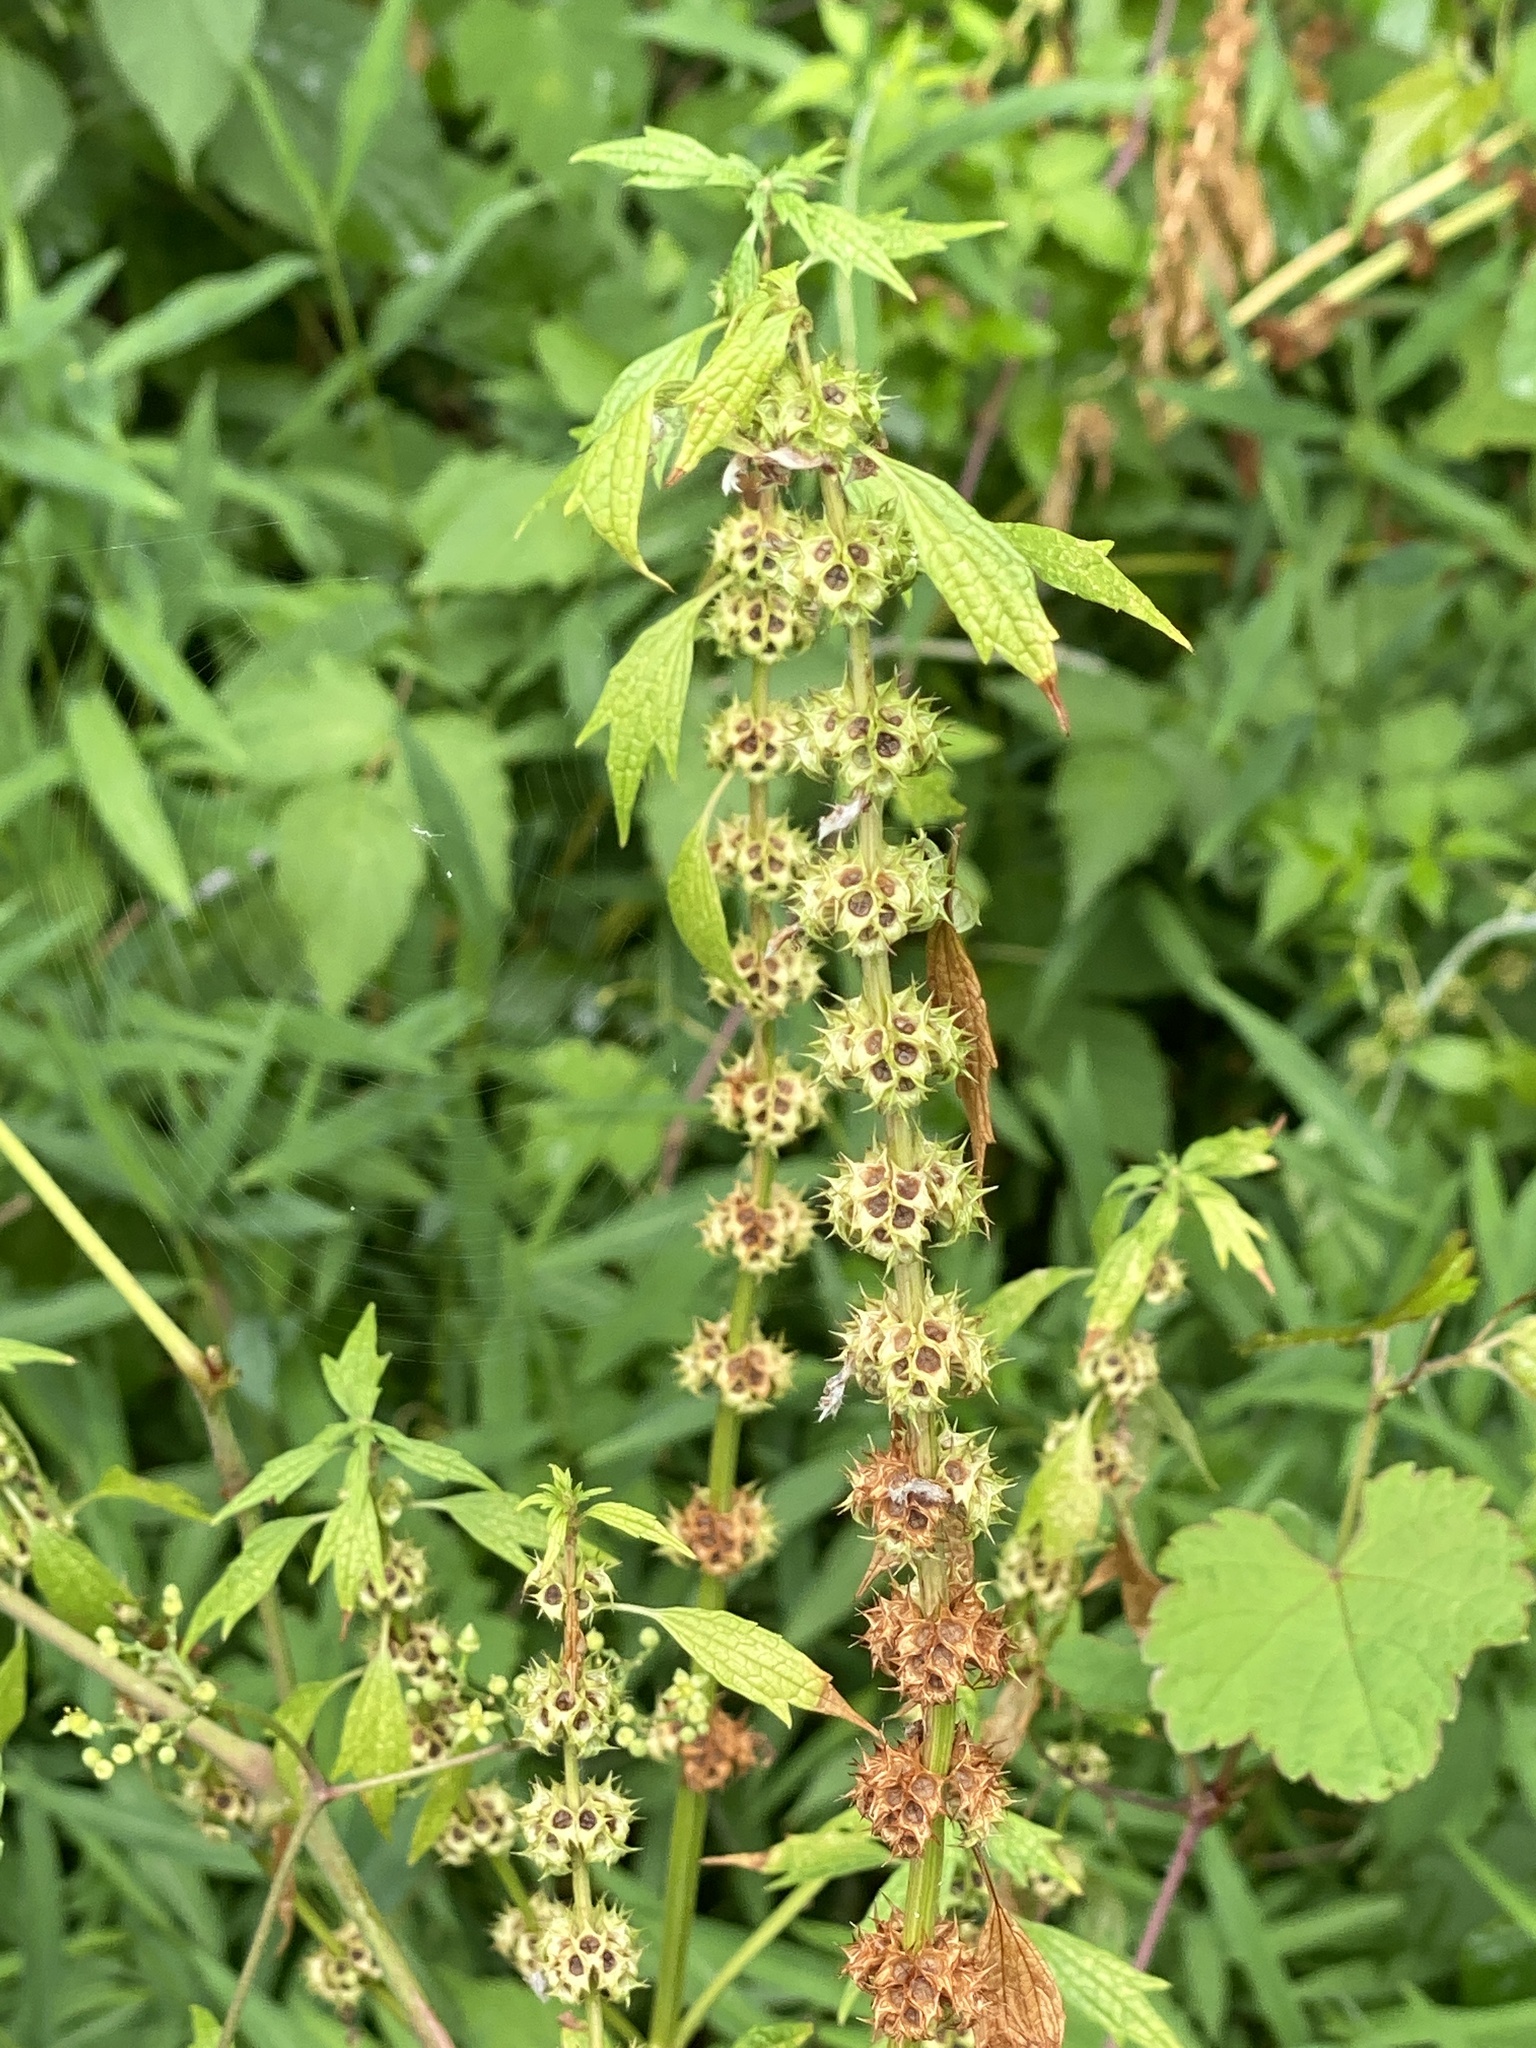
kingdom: Plantae
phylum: Tracheophyta
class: Magnoliopsida
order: Lamiales
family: Lamiaceae
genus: Leonurus
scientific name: Leonurus cardiaca
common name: Motherwort
